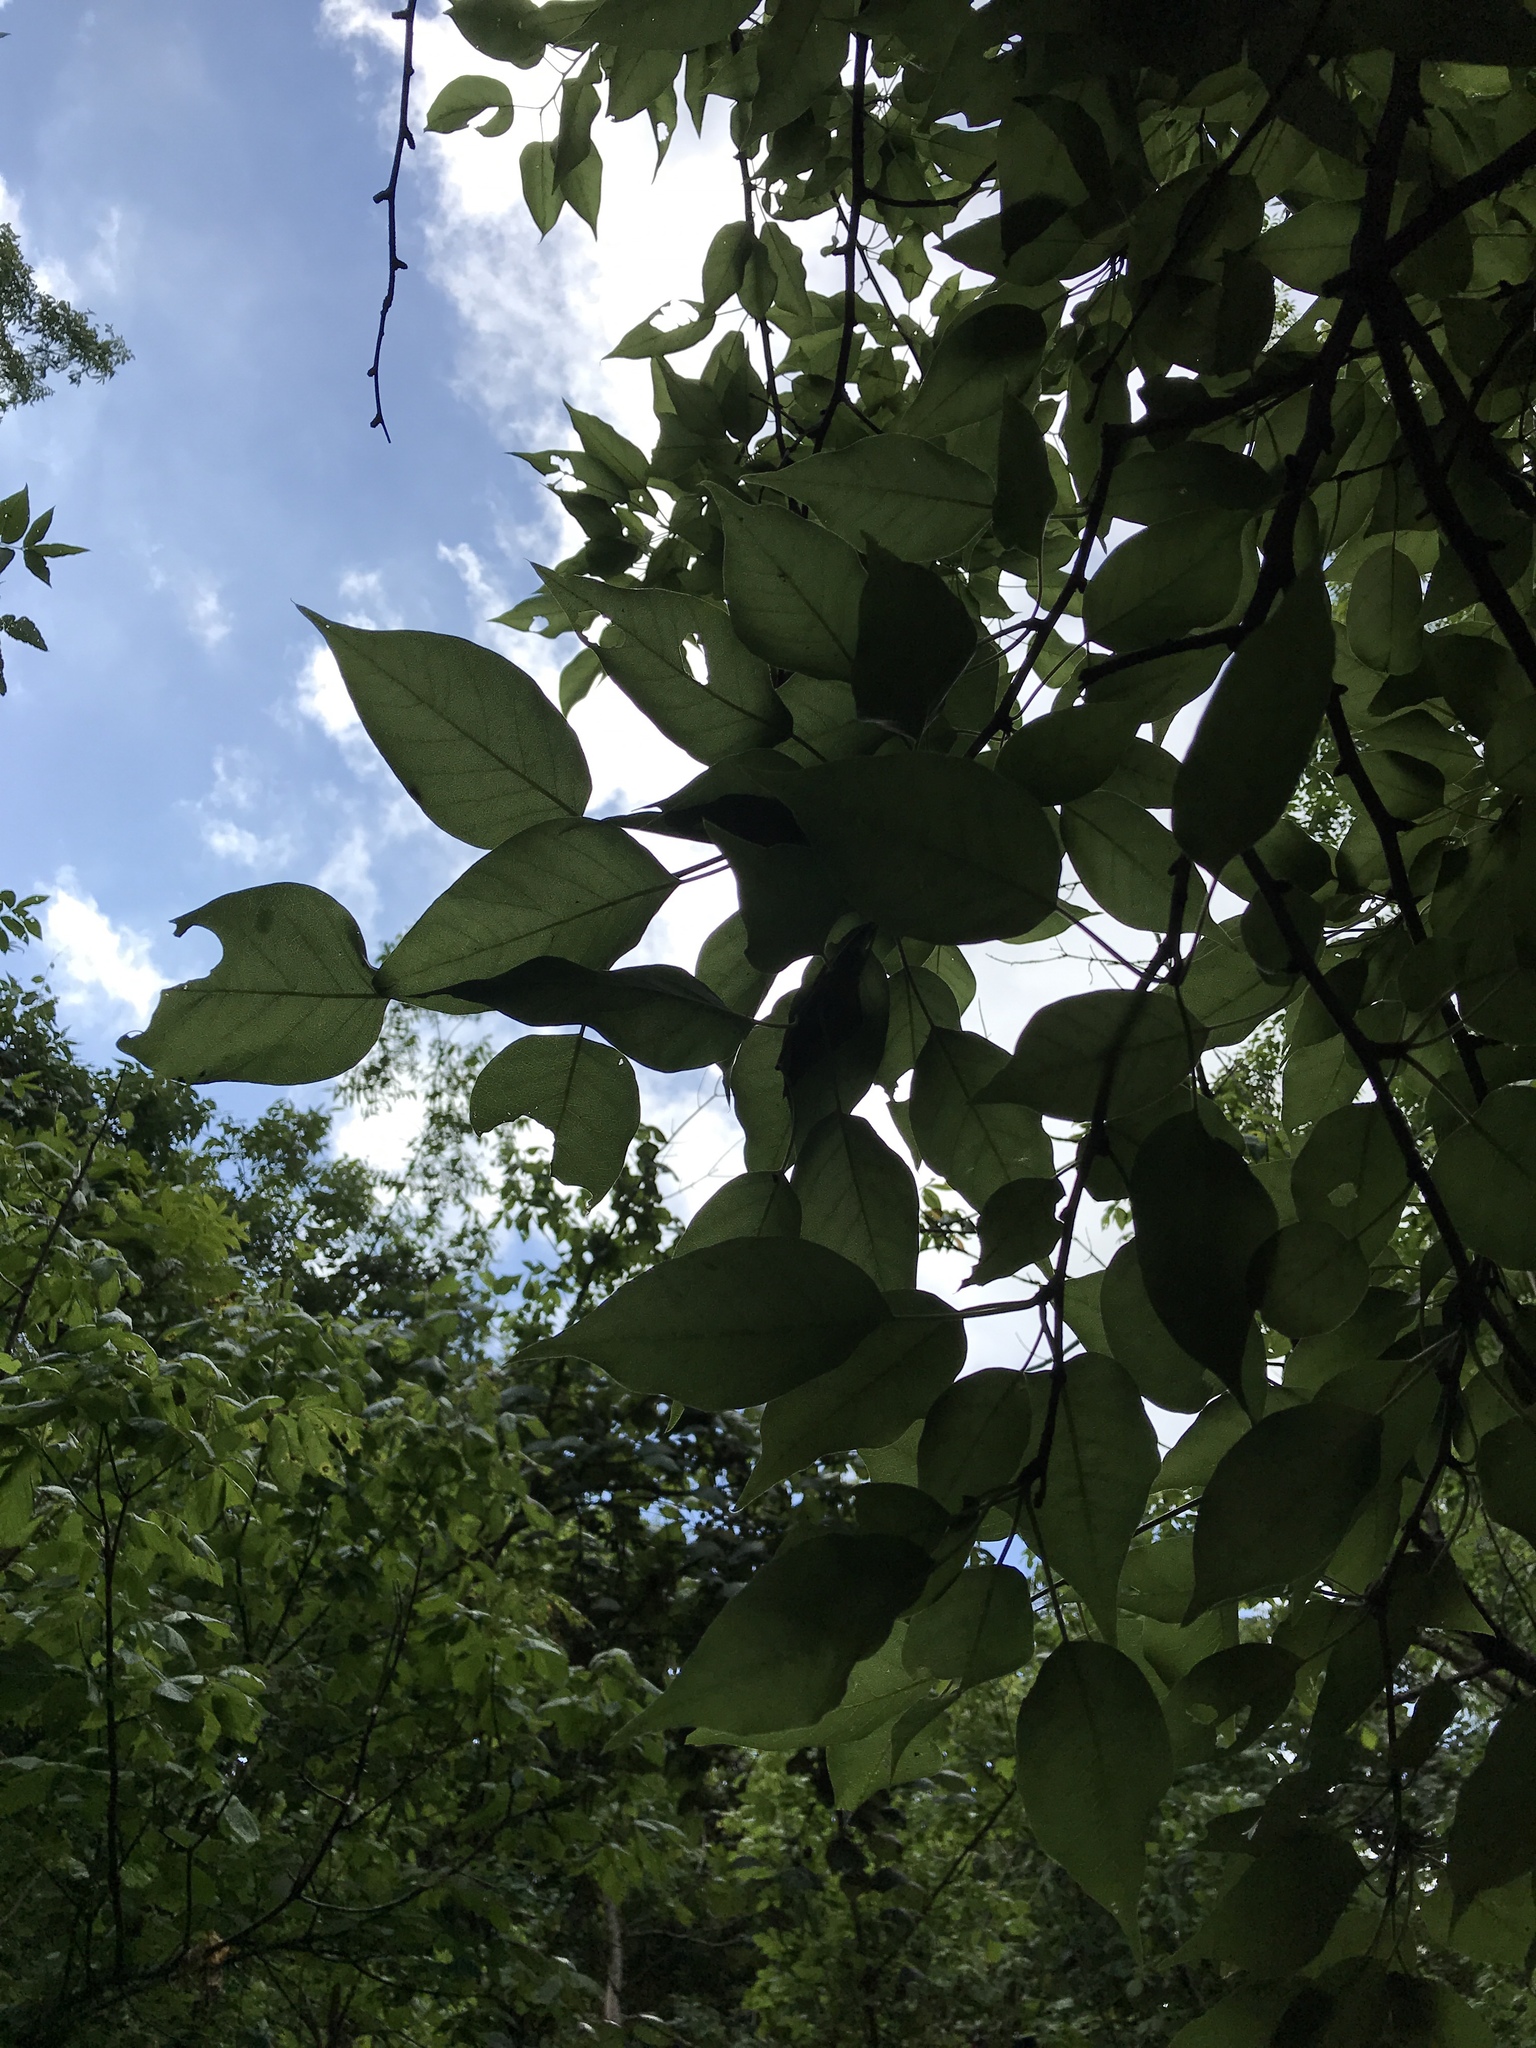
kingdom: Plantae
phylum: Tracheophyta
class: Magnoliopsida
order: Rosales
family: Moraceae
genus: Maclura
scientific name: Maclura pomifera
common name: Osage-orange
